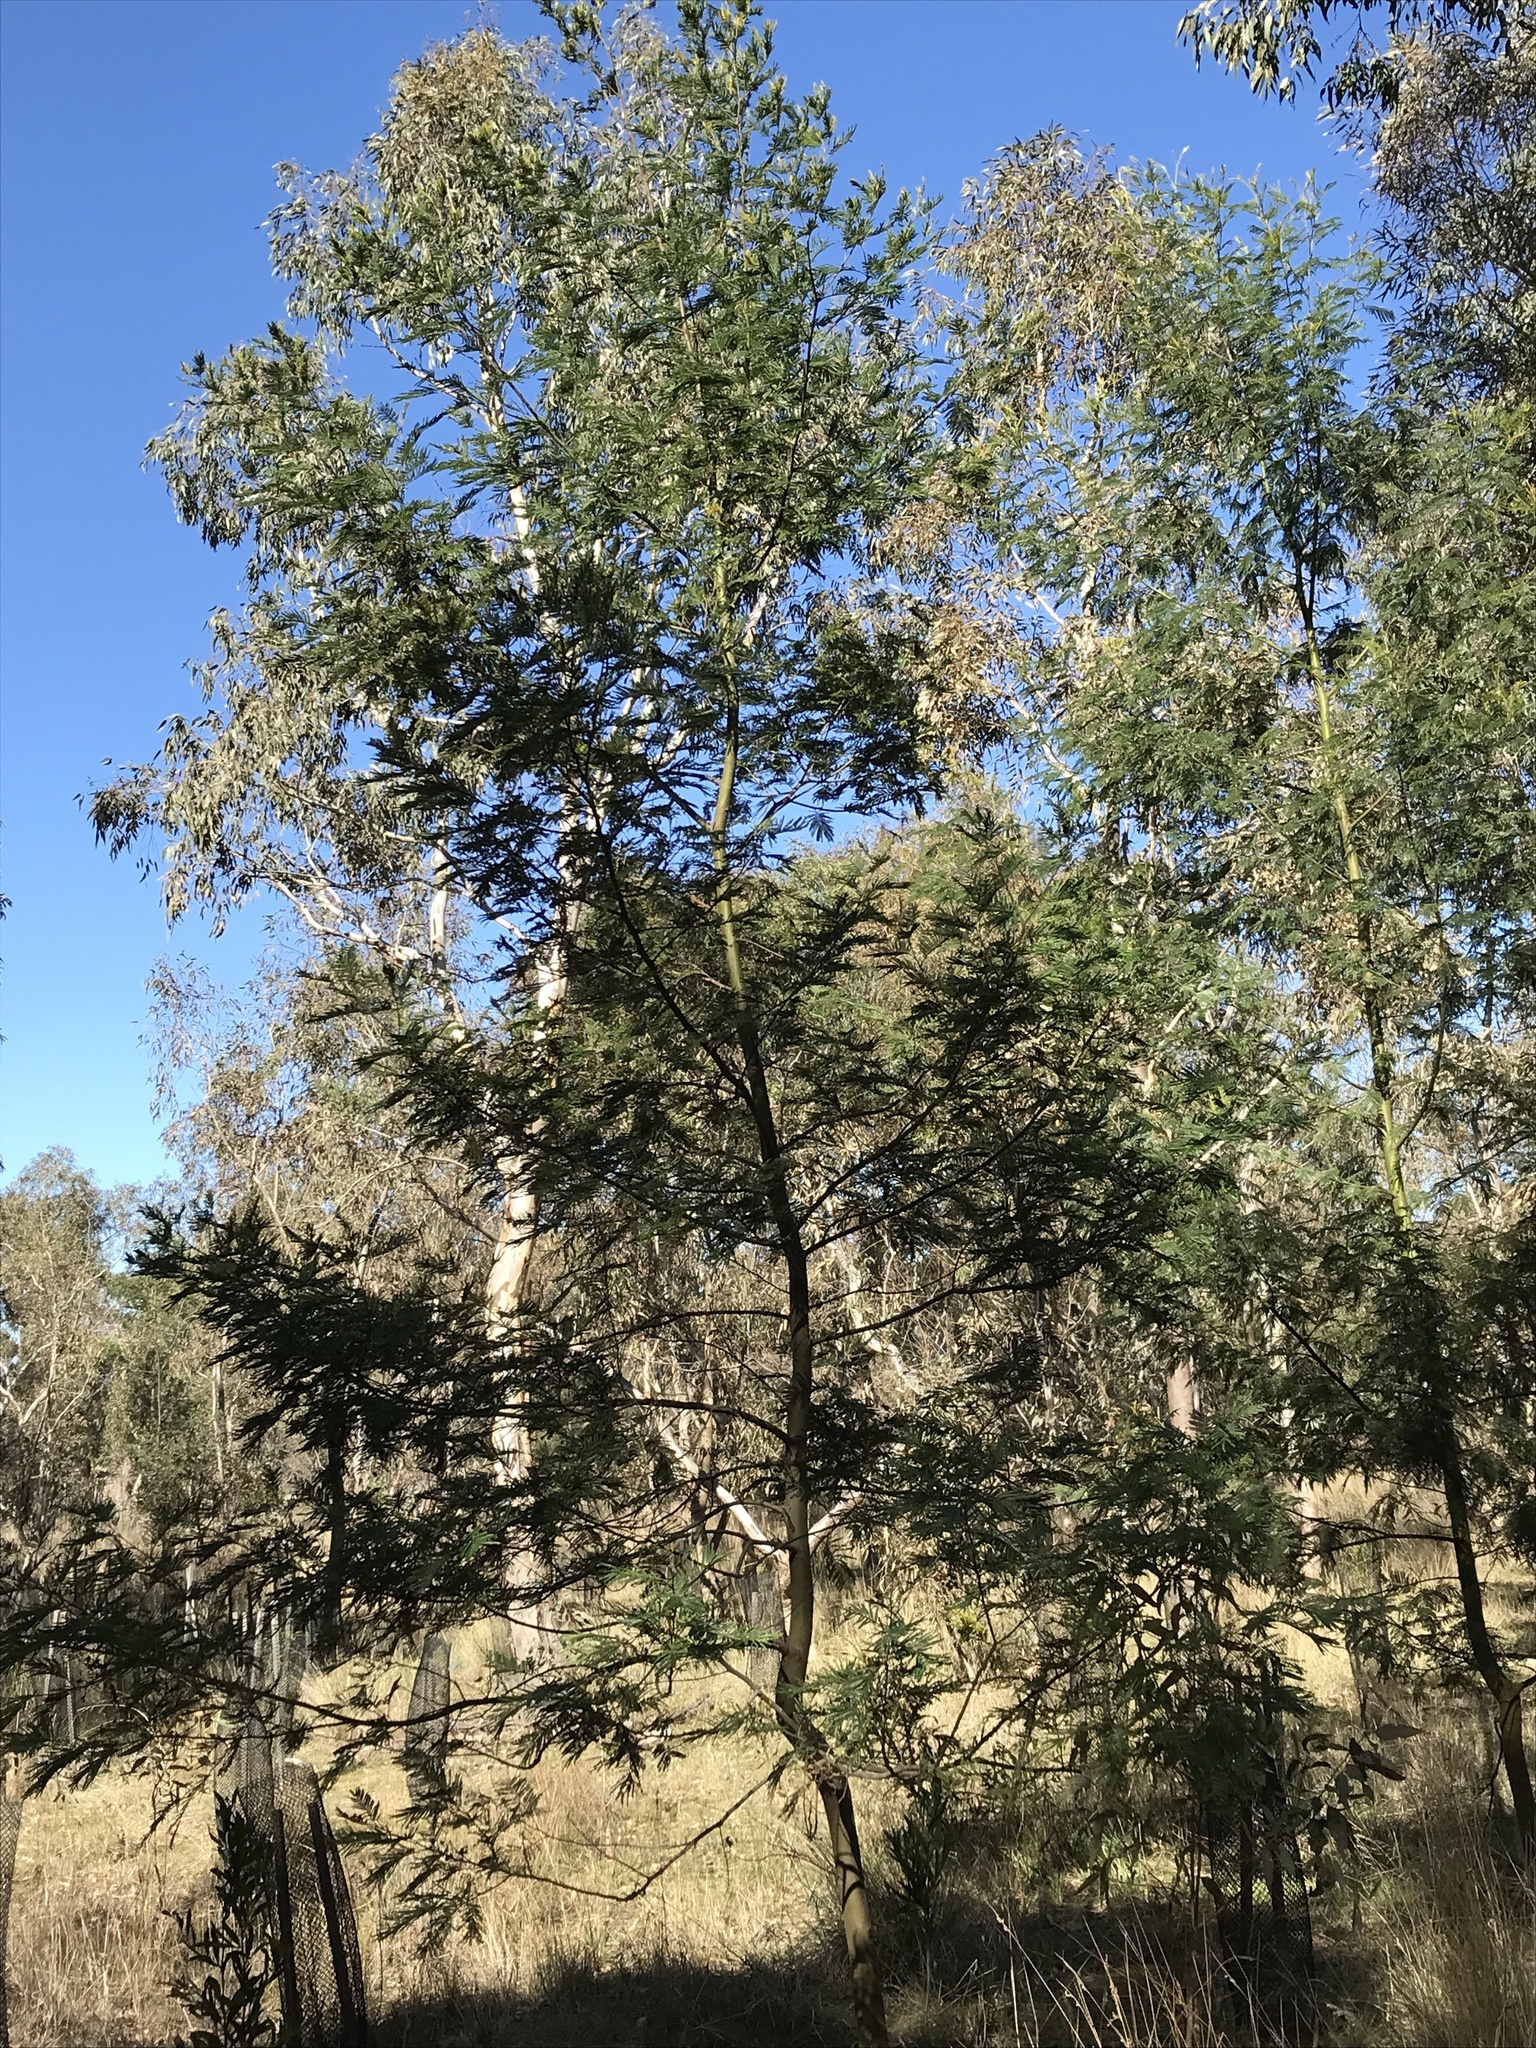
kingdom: Plantae
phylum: Tracheophyta
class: Magnoliopsida
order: Fabales
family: Fabaceae
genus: Acacia
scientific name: Acacia mearnsii
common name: Black wattle
